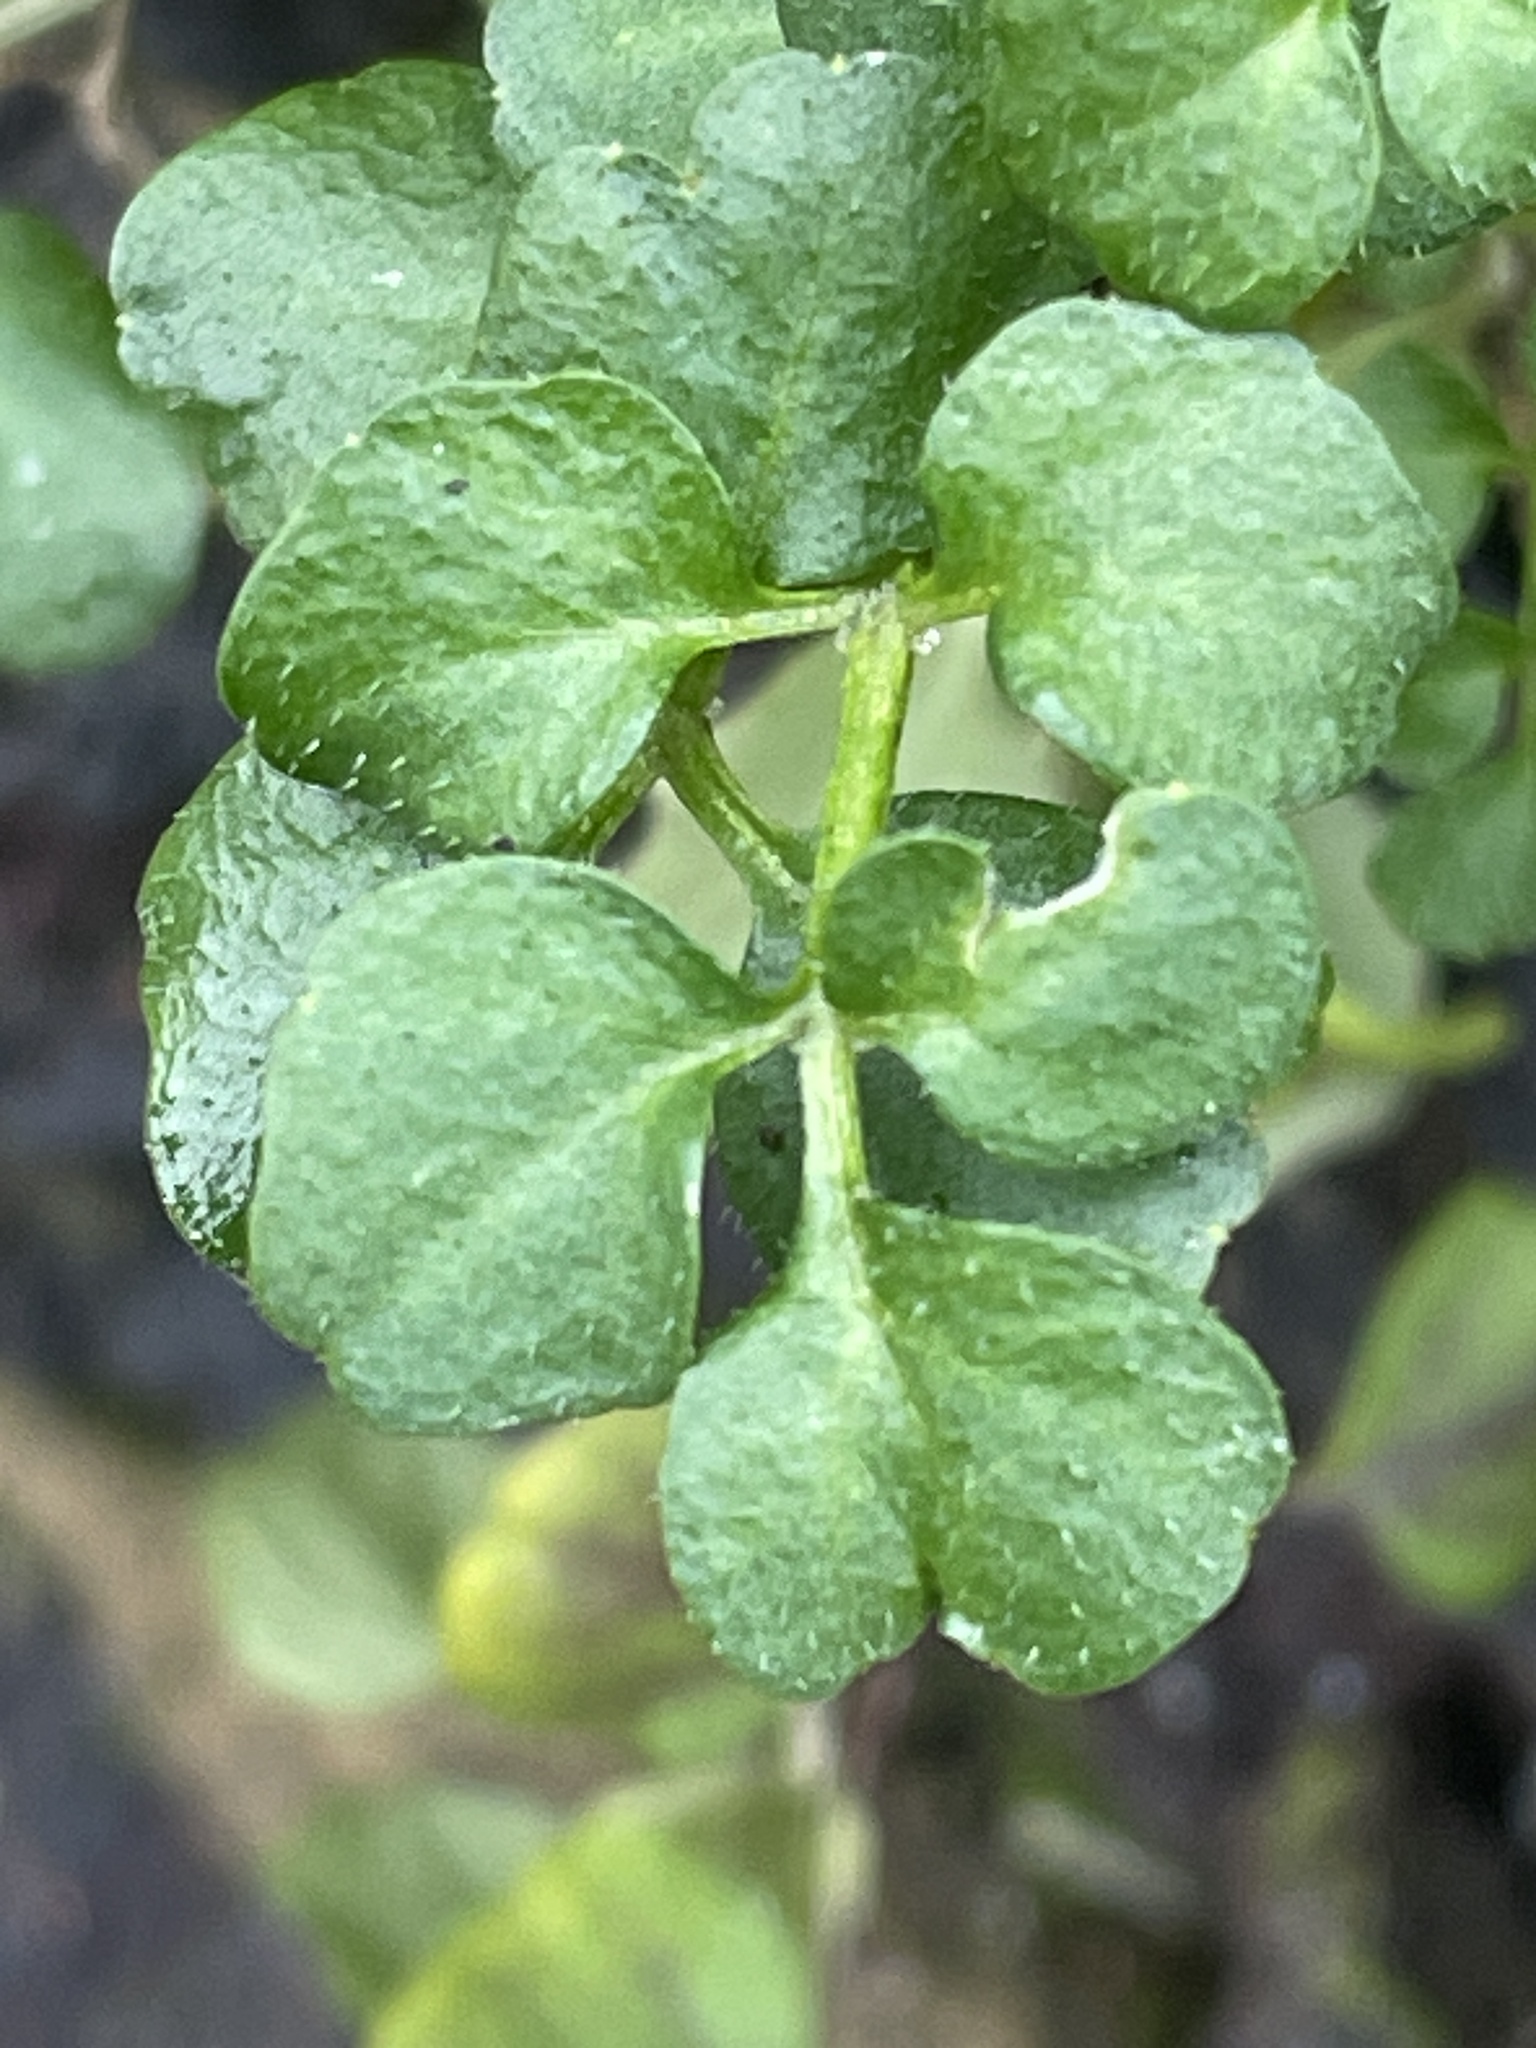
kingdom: Plantae
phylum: Tracheophyta
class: Magnoliopsida
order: Brassicales
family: Brassicaceae
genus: Cardamine
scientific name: Cardamine hirsuta
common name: Hairy bittercress
